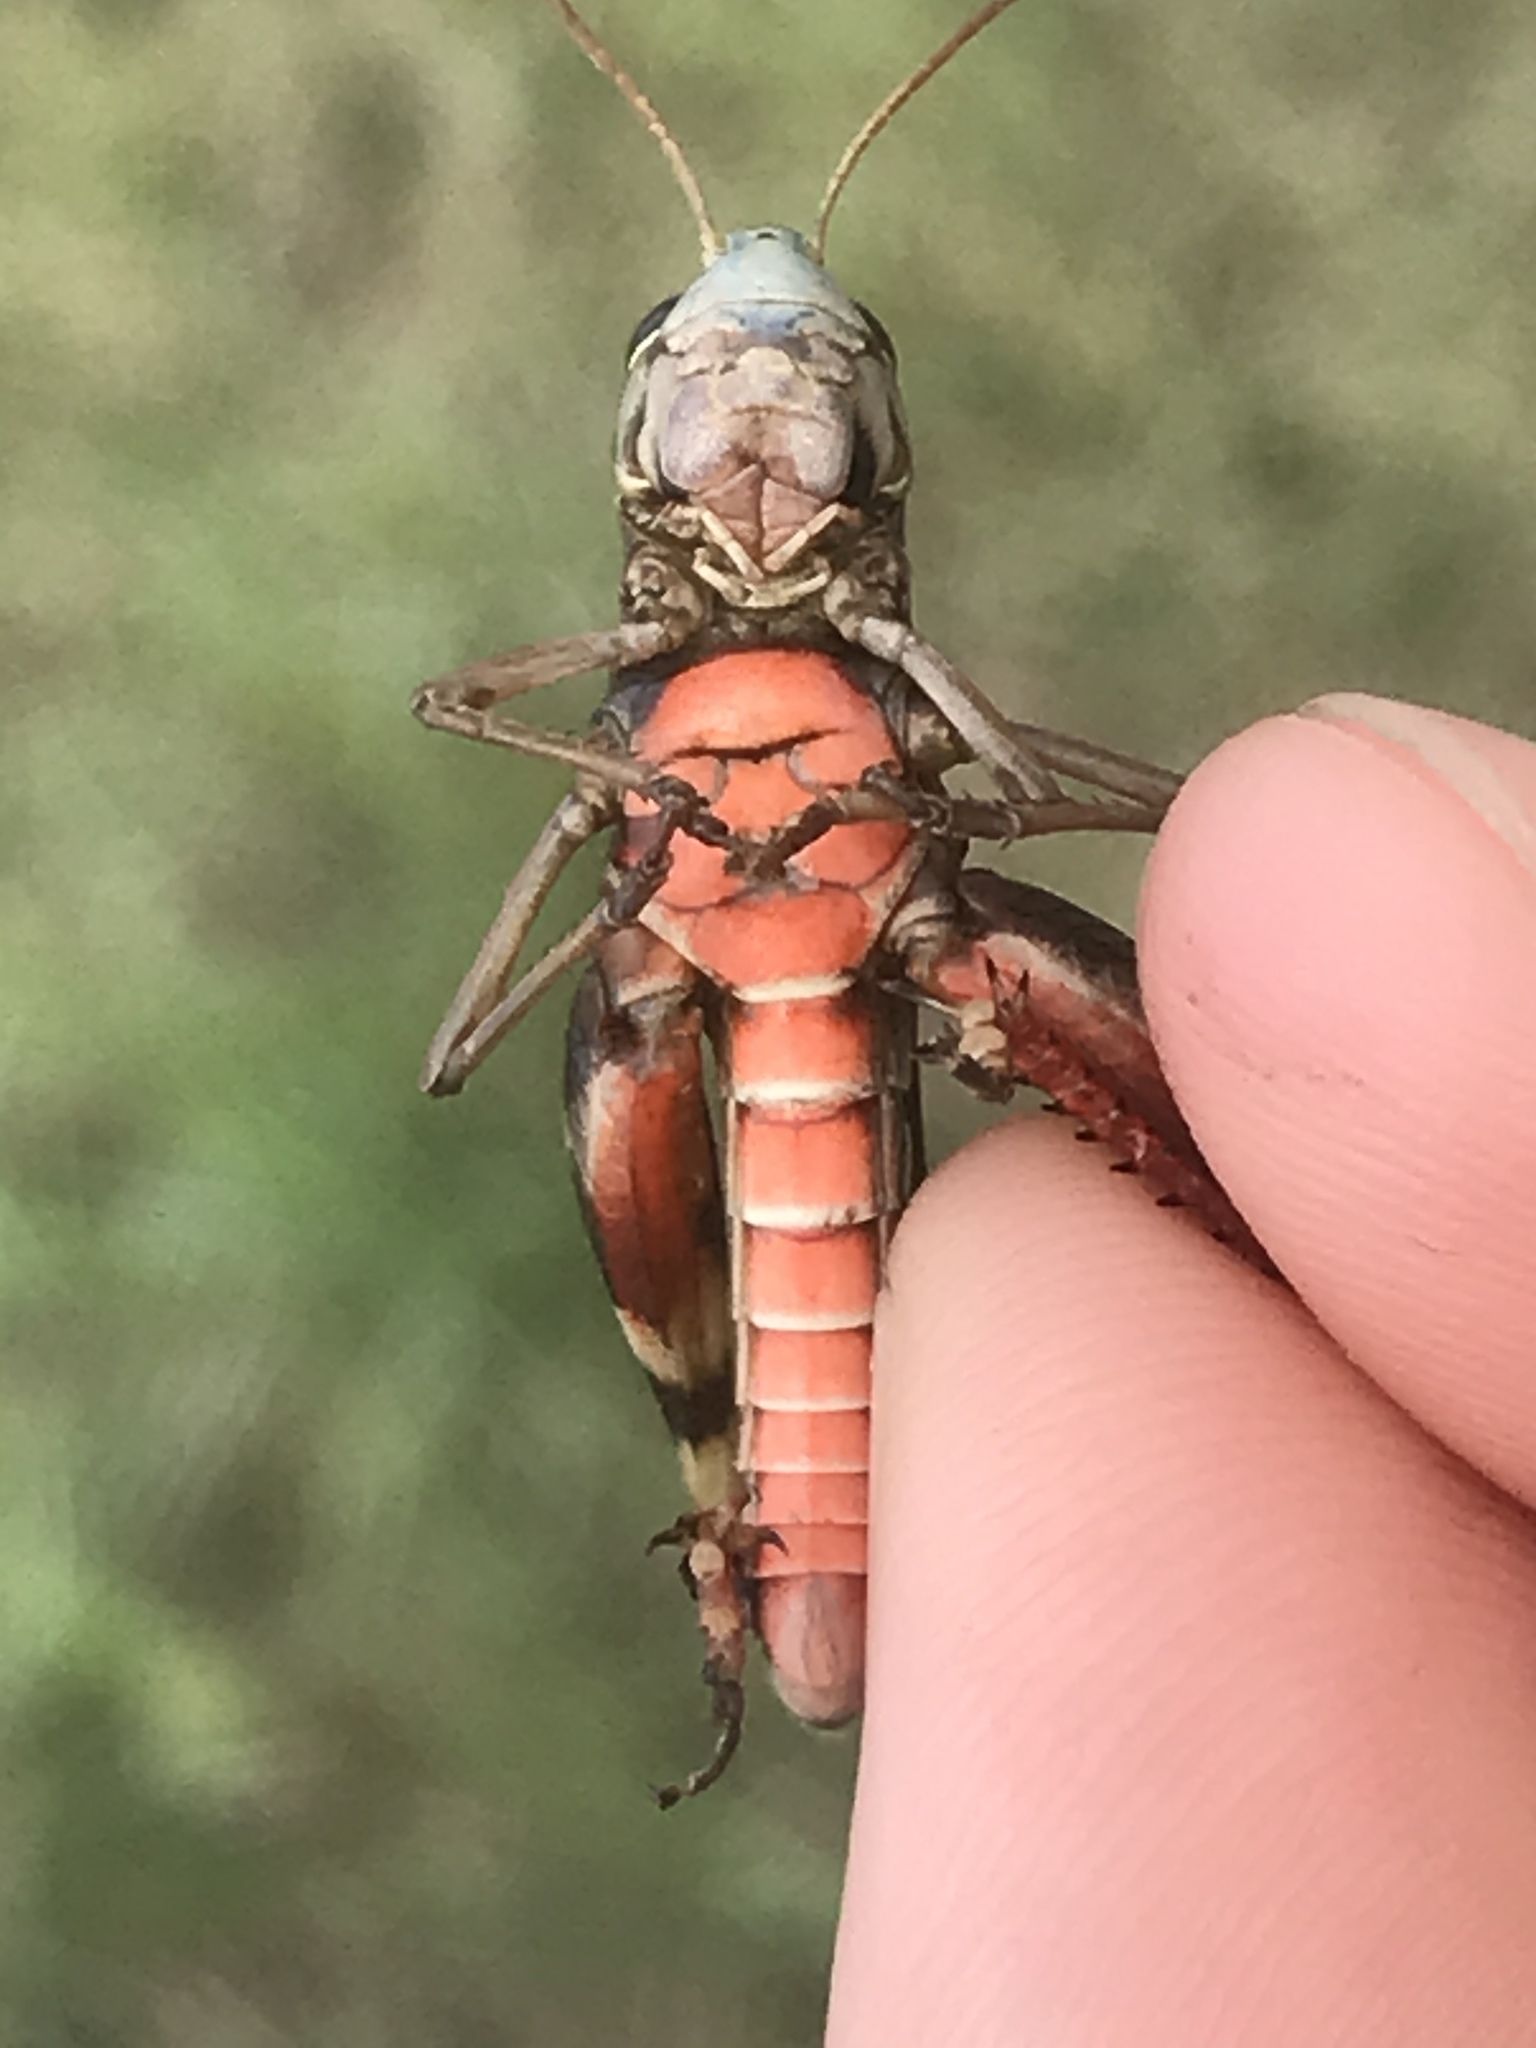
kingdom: Animalia
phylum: Arthropoda
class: Insecta
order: Orthoptera
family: Acrididae
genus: Boopedon
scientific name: Boopedon gracile
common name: Graceful range grasshopper
